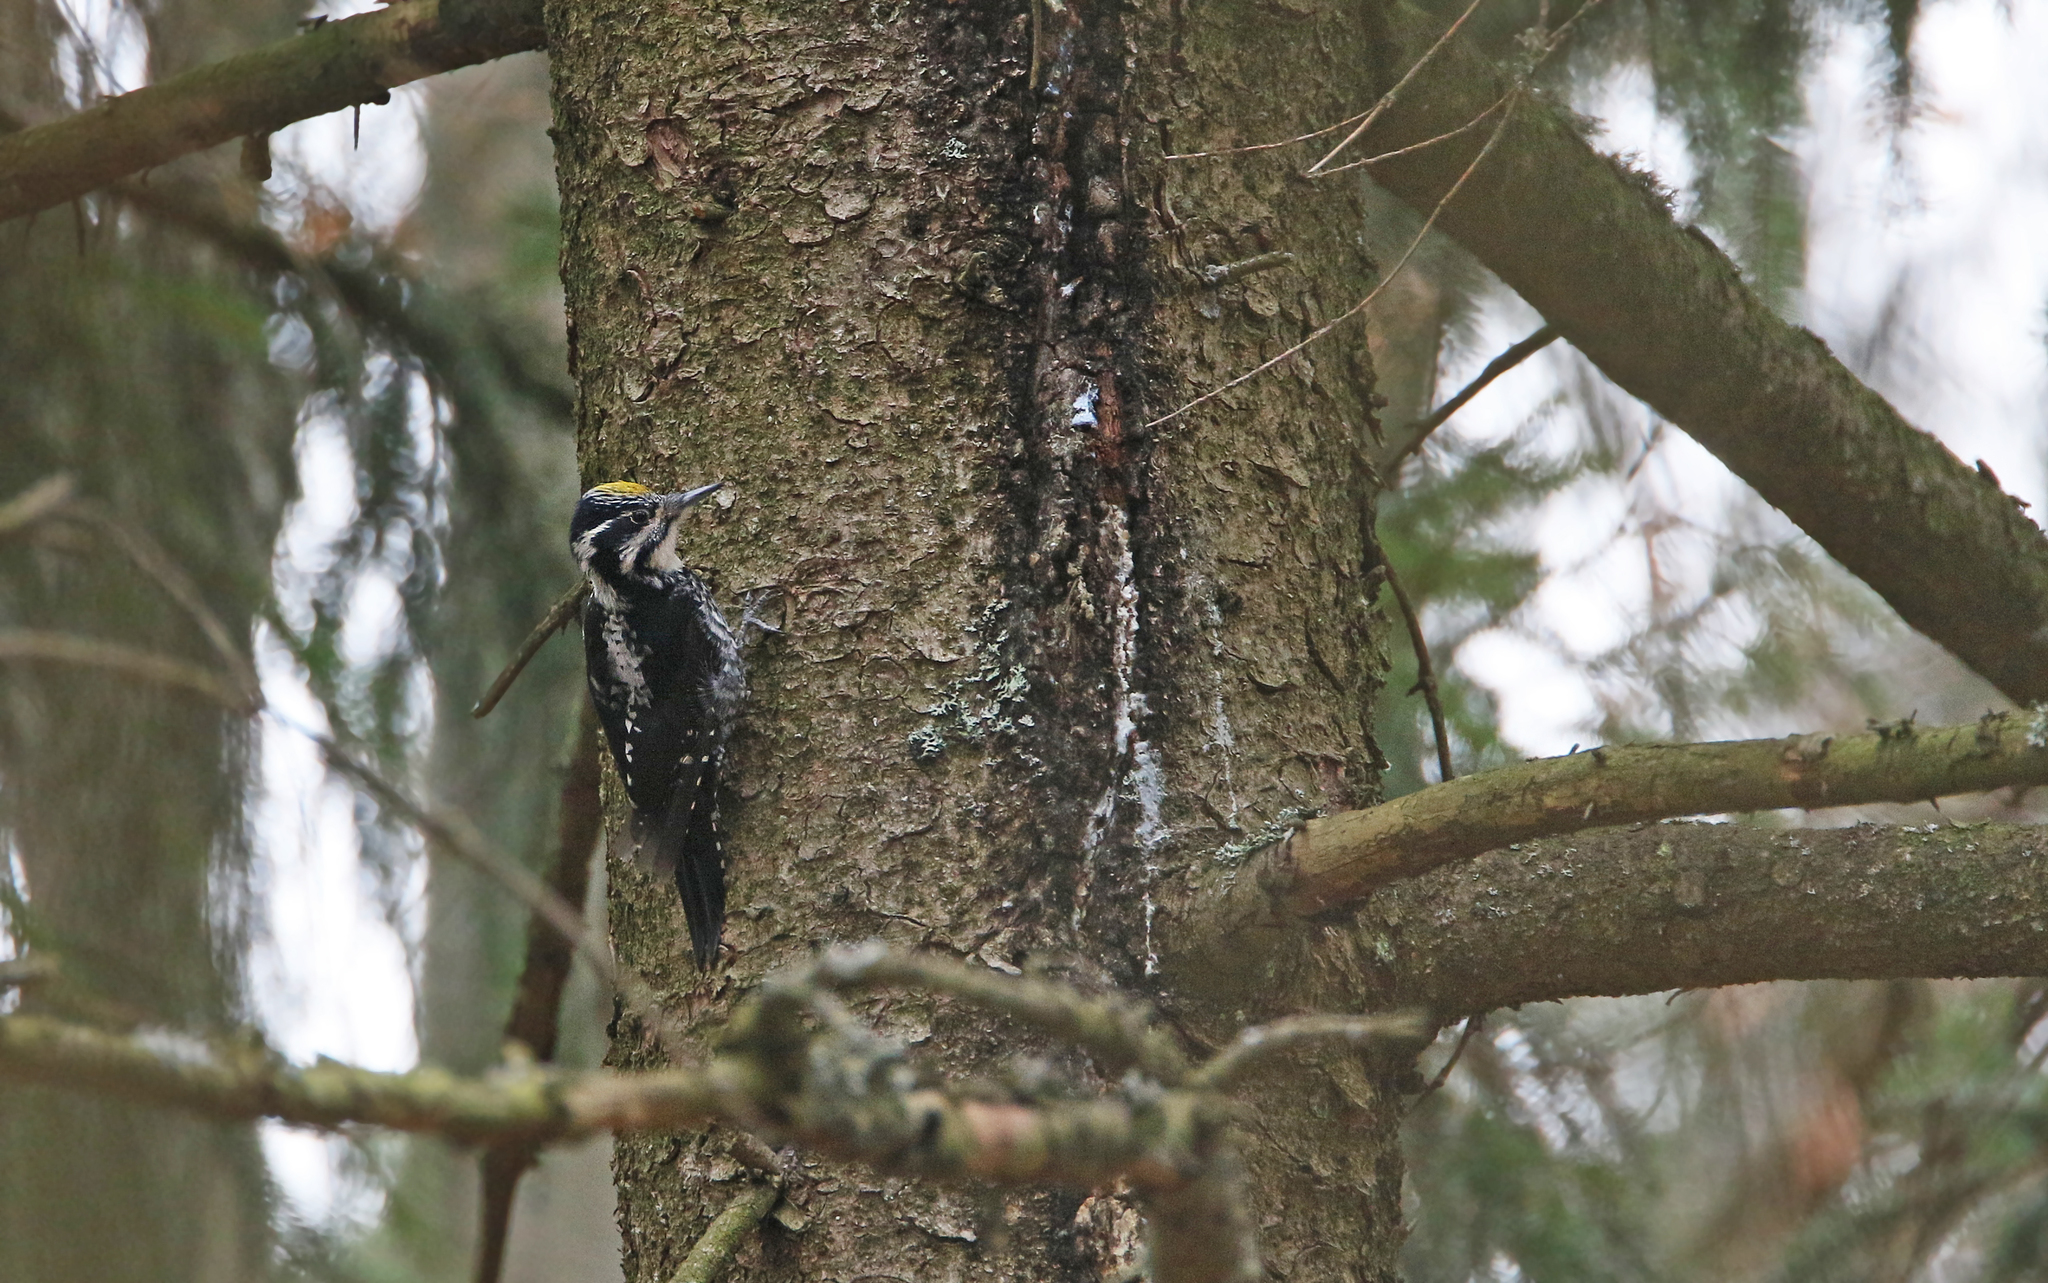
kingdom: Animalia
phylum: Chordata
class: Aves
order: Piciformes
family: Picidae
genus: Picoides
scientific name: Picoides tridactylus
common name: Eurasian three-toed woodpecker
